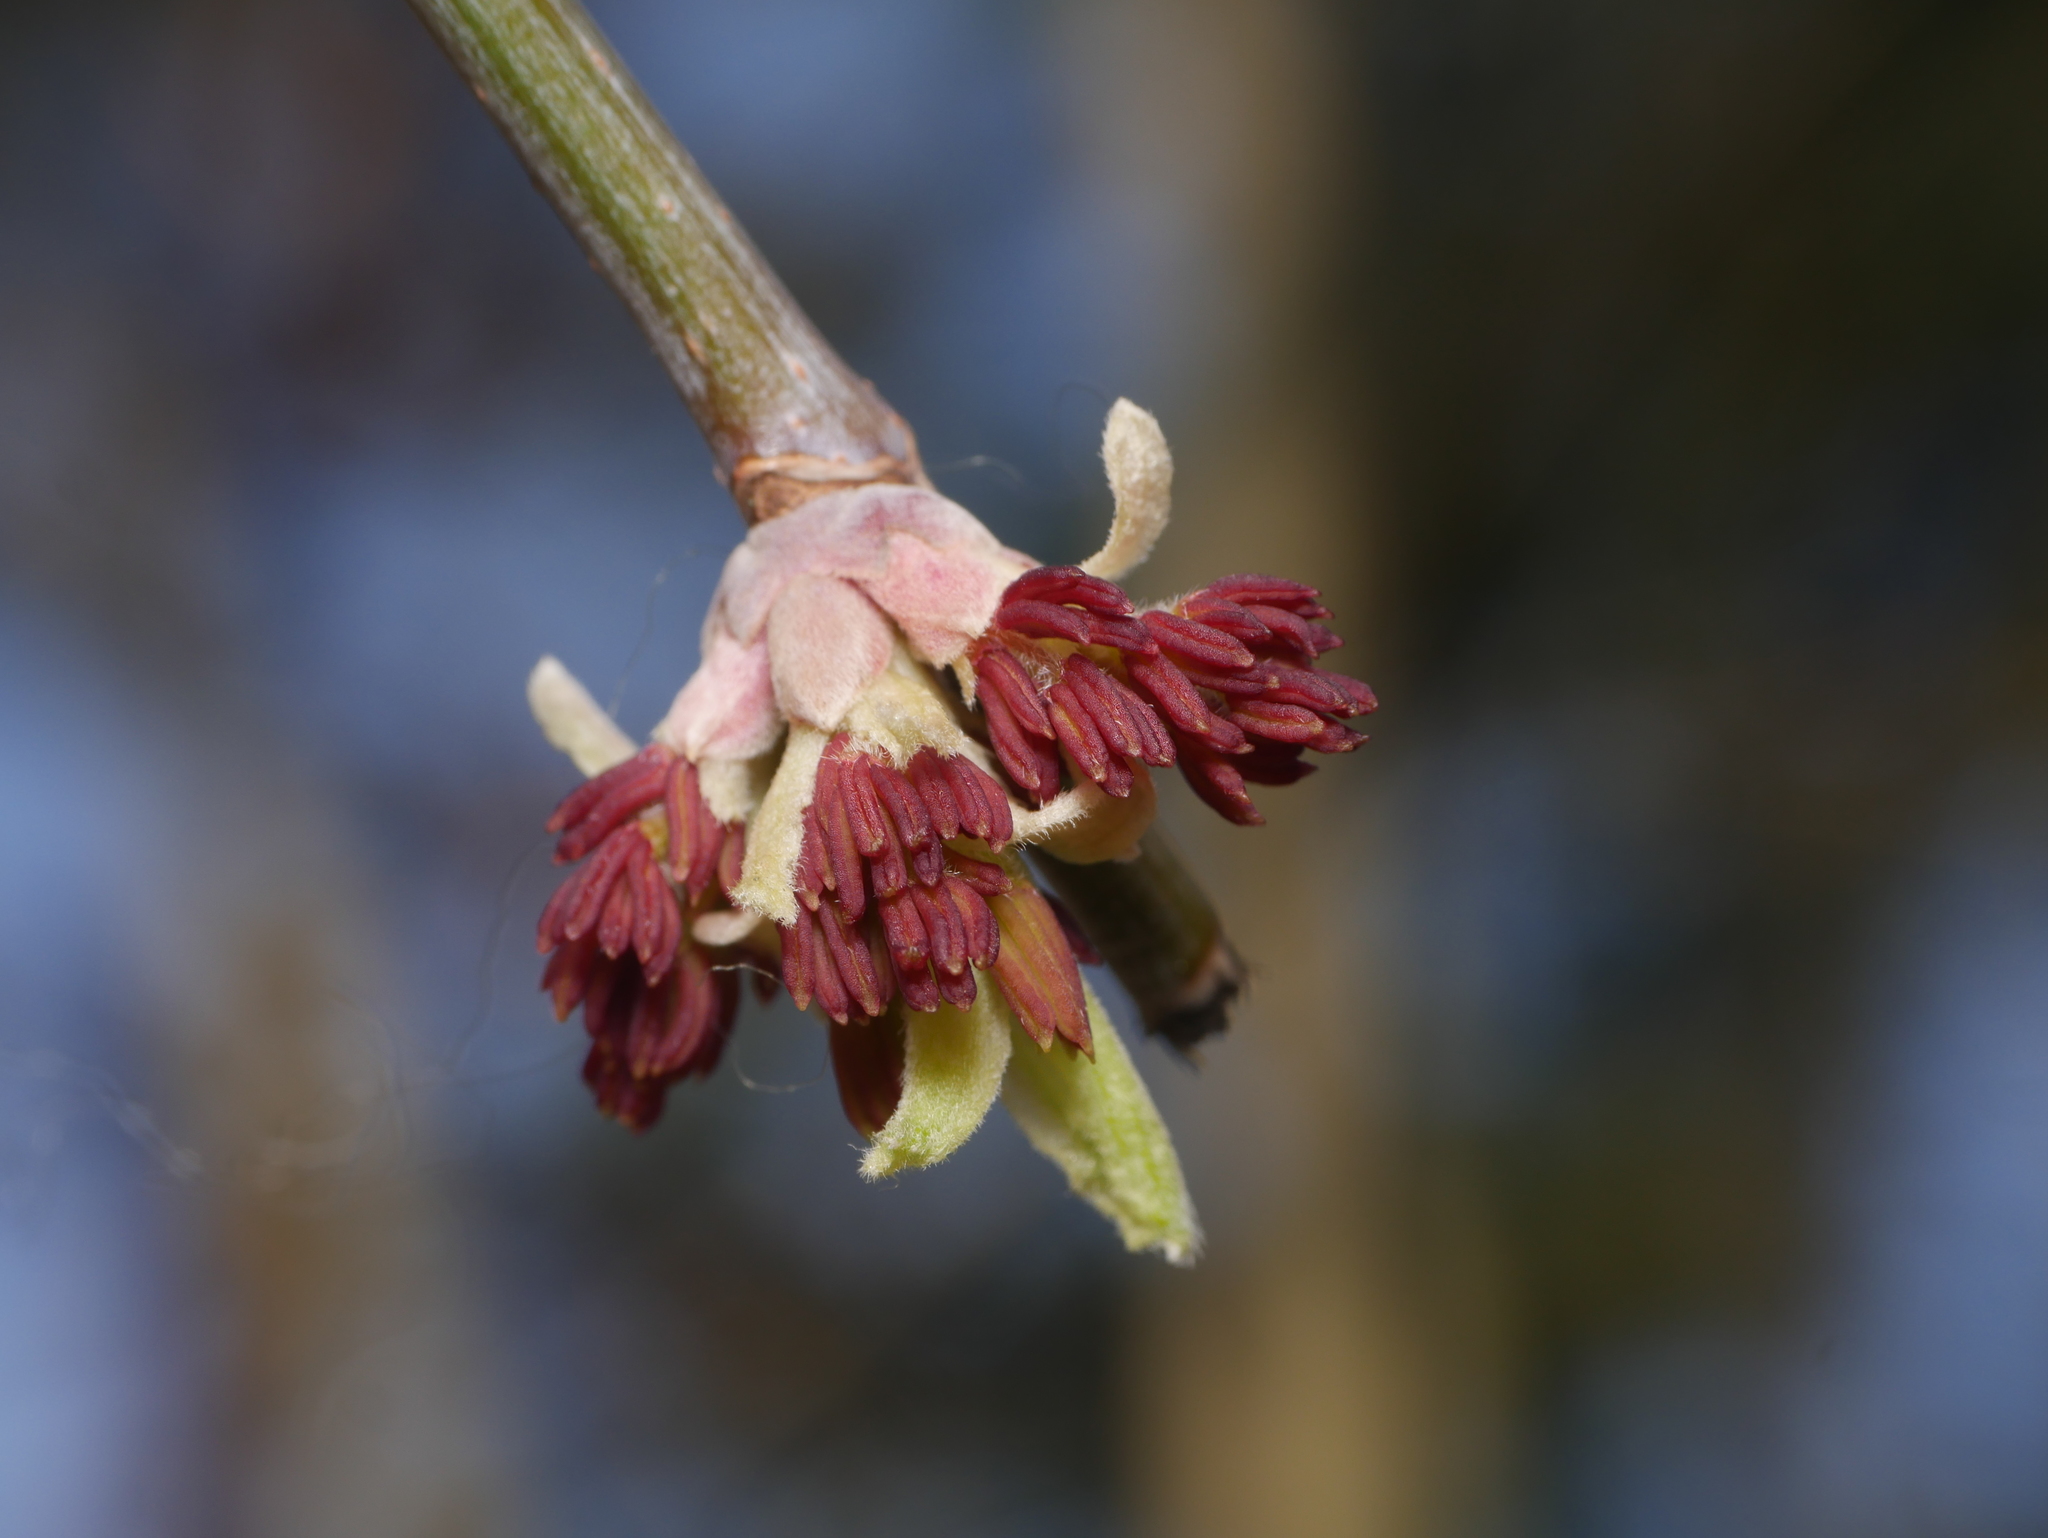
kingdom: Plantae
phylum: Tracheophyta
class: Magnoliopsida
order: Sapindales
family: Sapindaceae
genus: Acer
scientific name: Acer negundo
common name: Ashleaf maple
